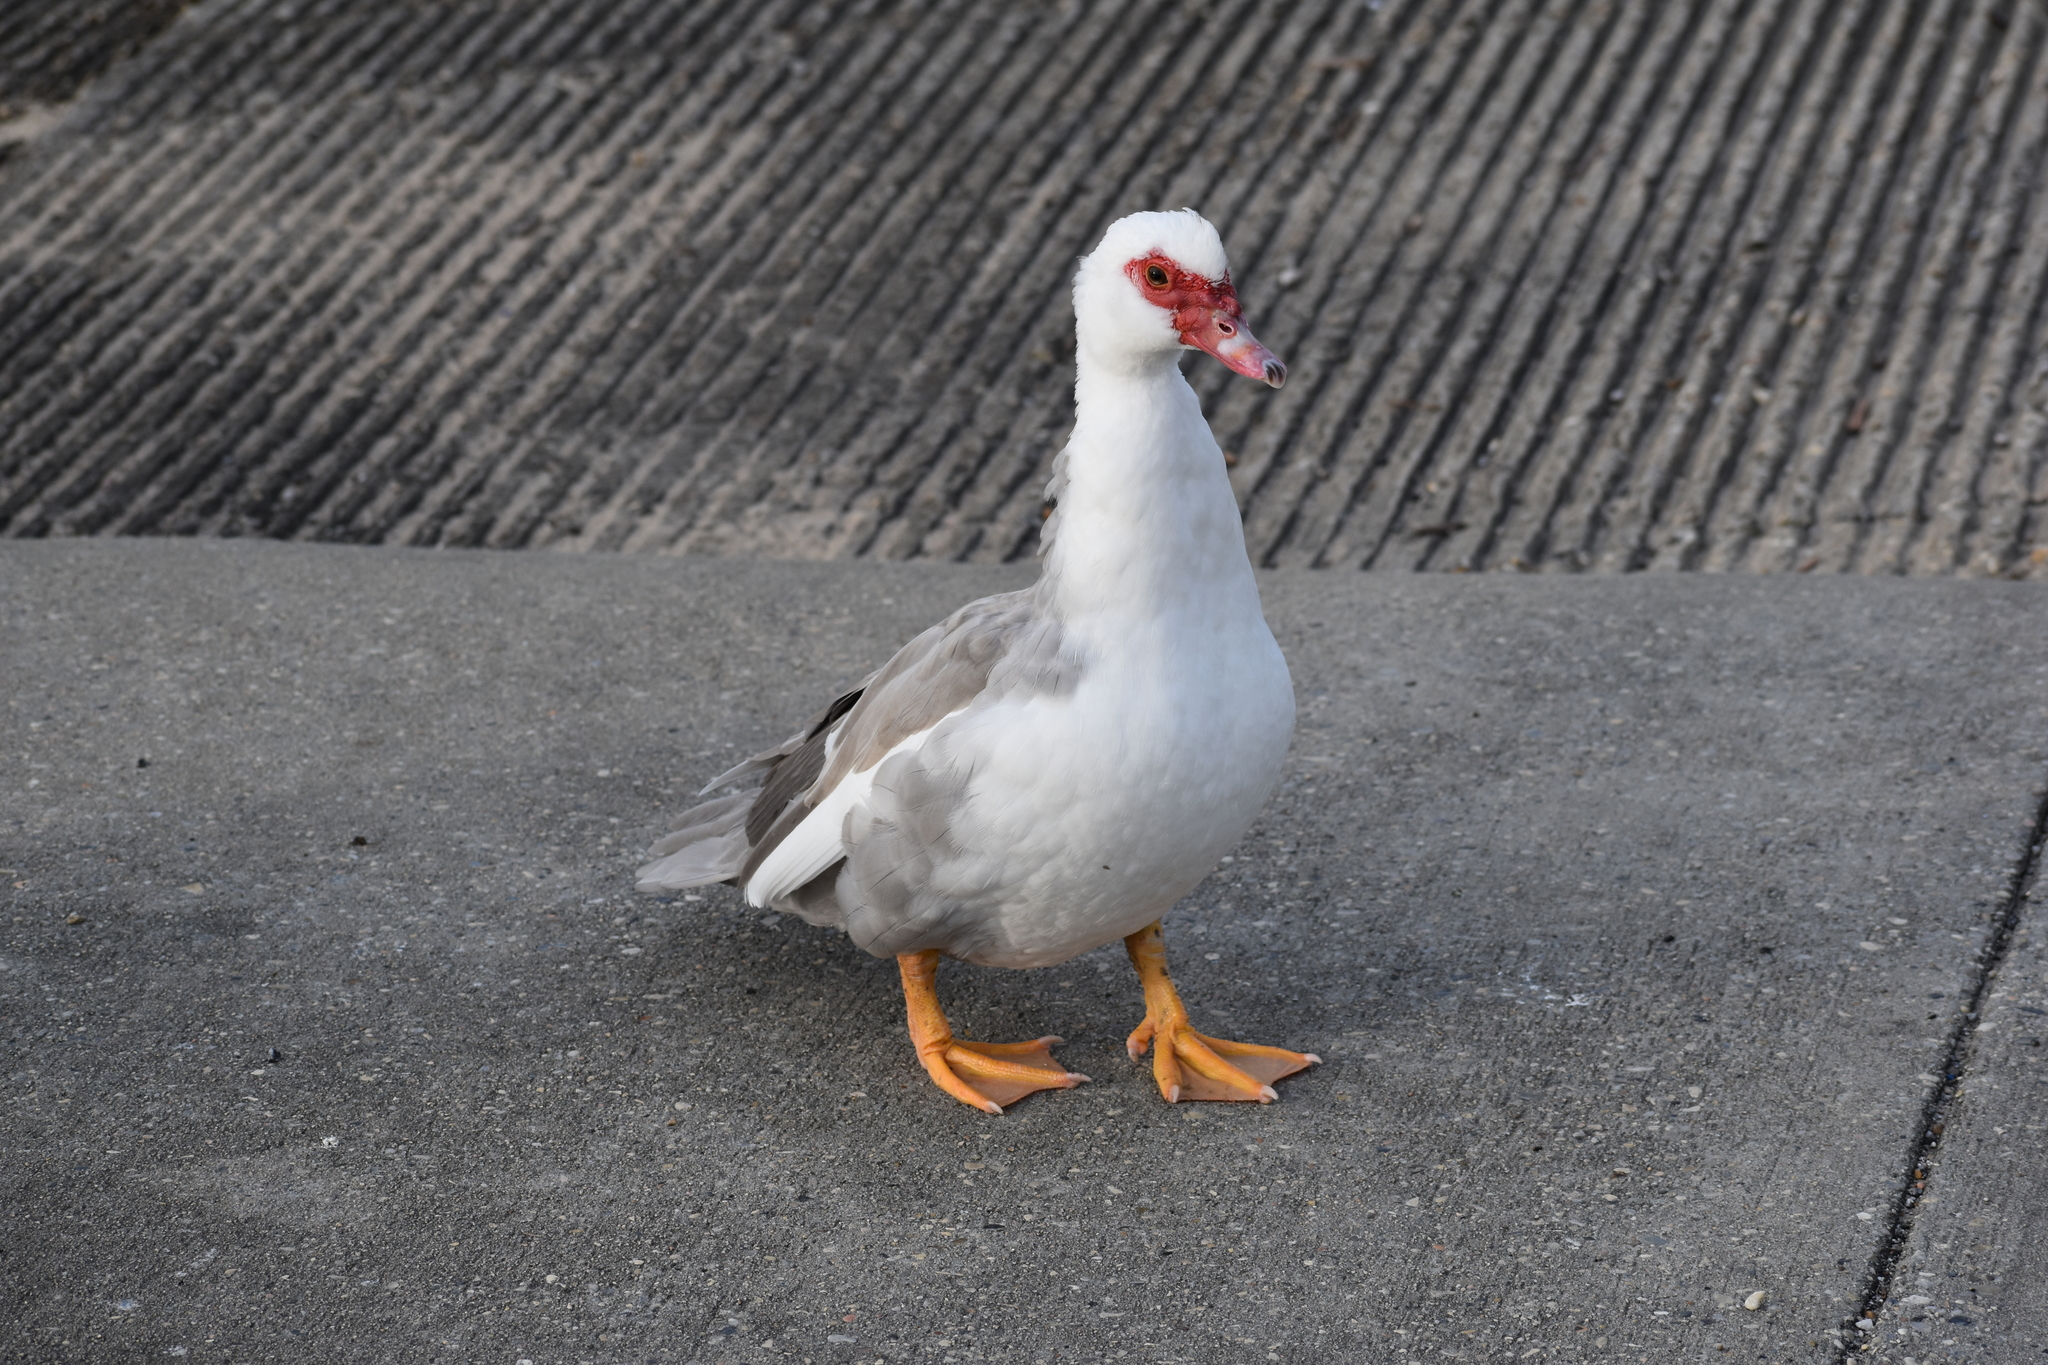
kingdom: Animalia
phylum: Chordata
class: Aves
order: Anseriformes
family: Anatidae
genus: Cairina
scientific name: Cairina moschata
